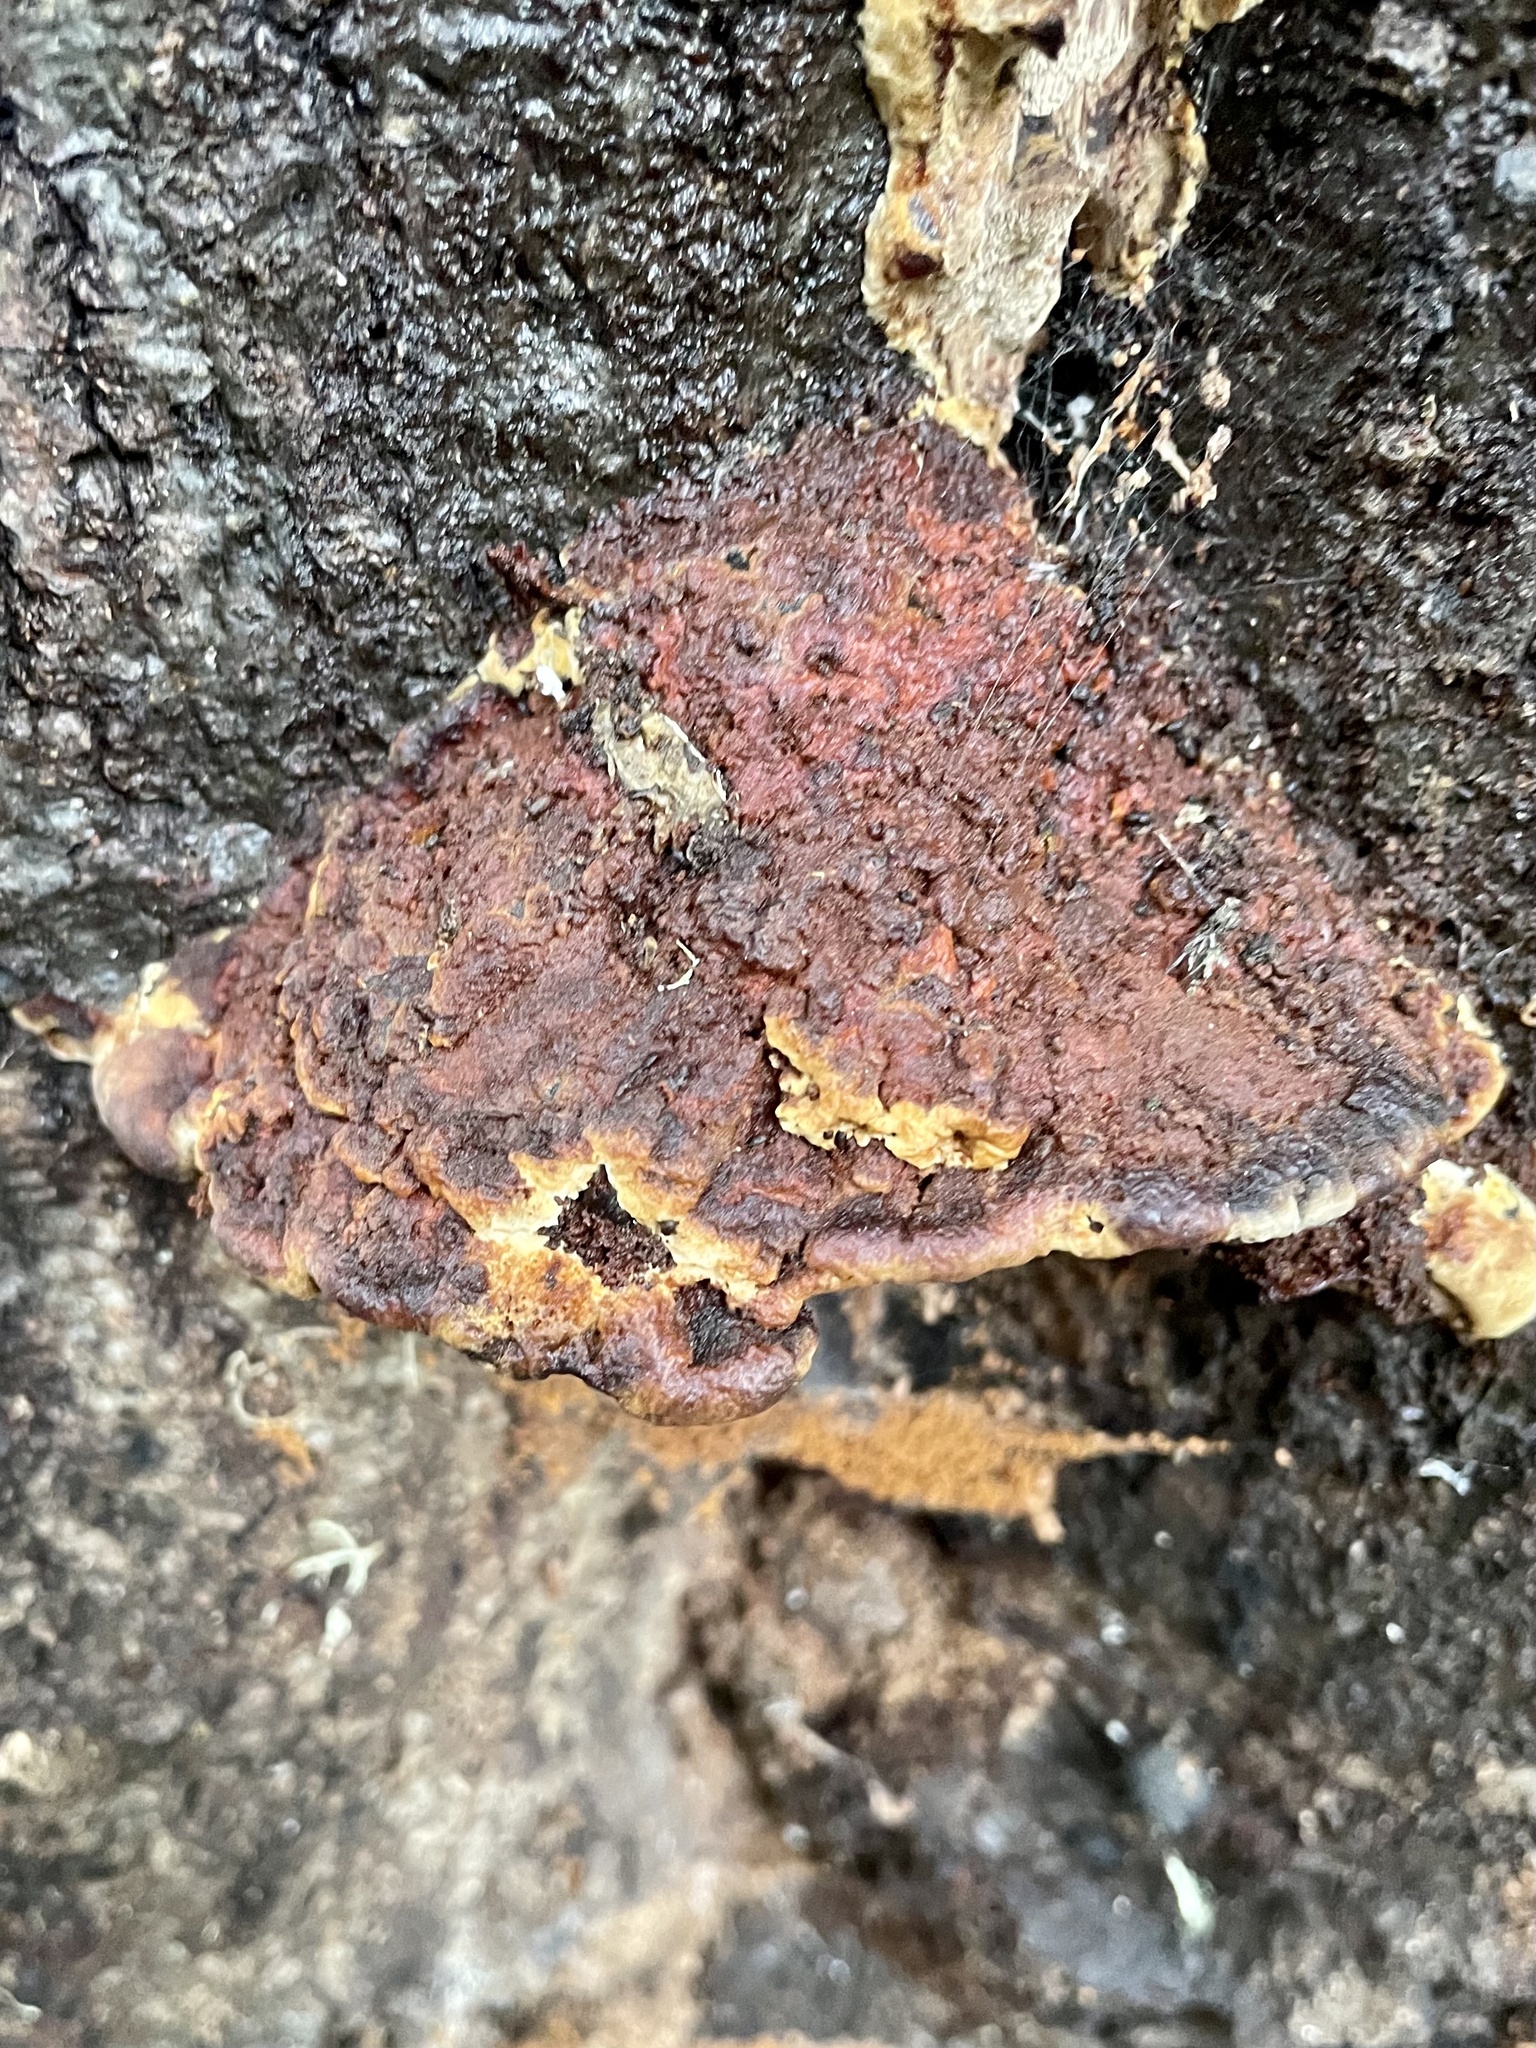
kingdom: Fungi
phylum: Basidiomycota
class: Agaricomycetes
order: Hymenochaetales
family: Hymenochaetaceae
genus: Phellinus
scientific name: Phellinus gilvus
